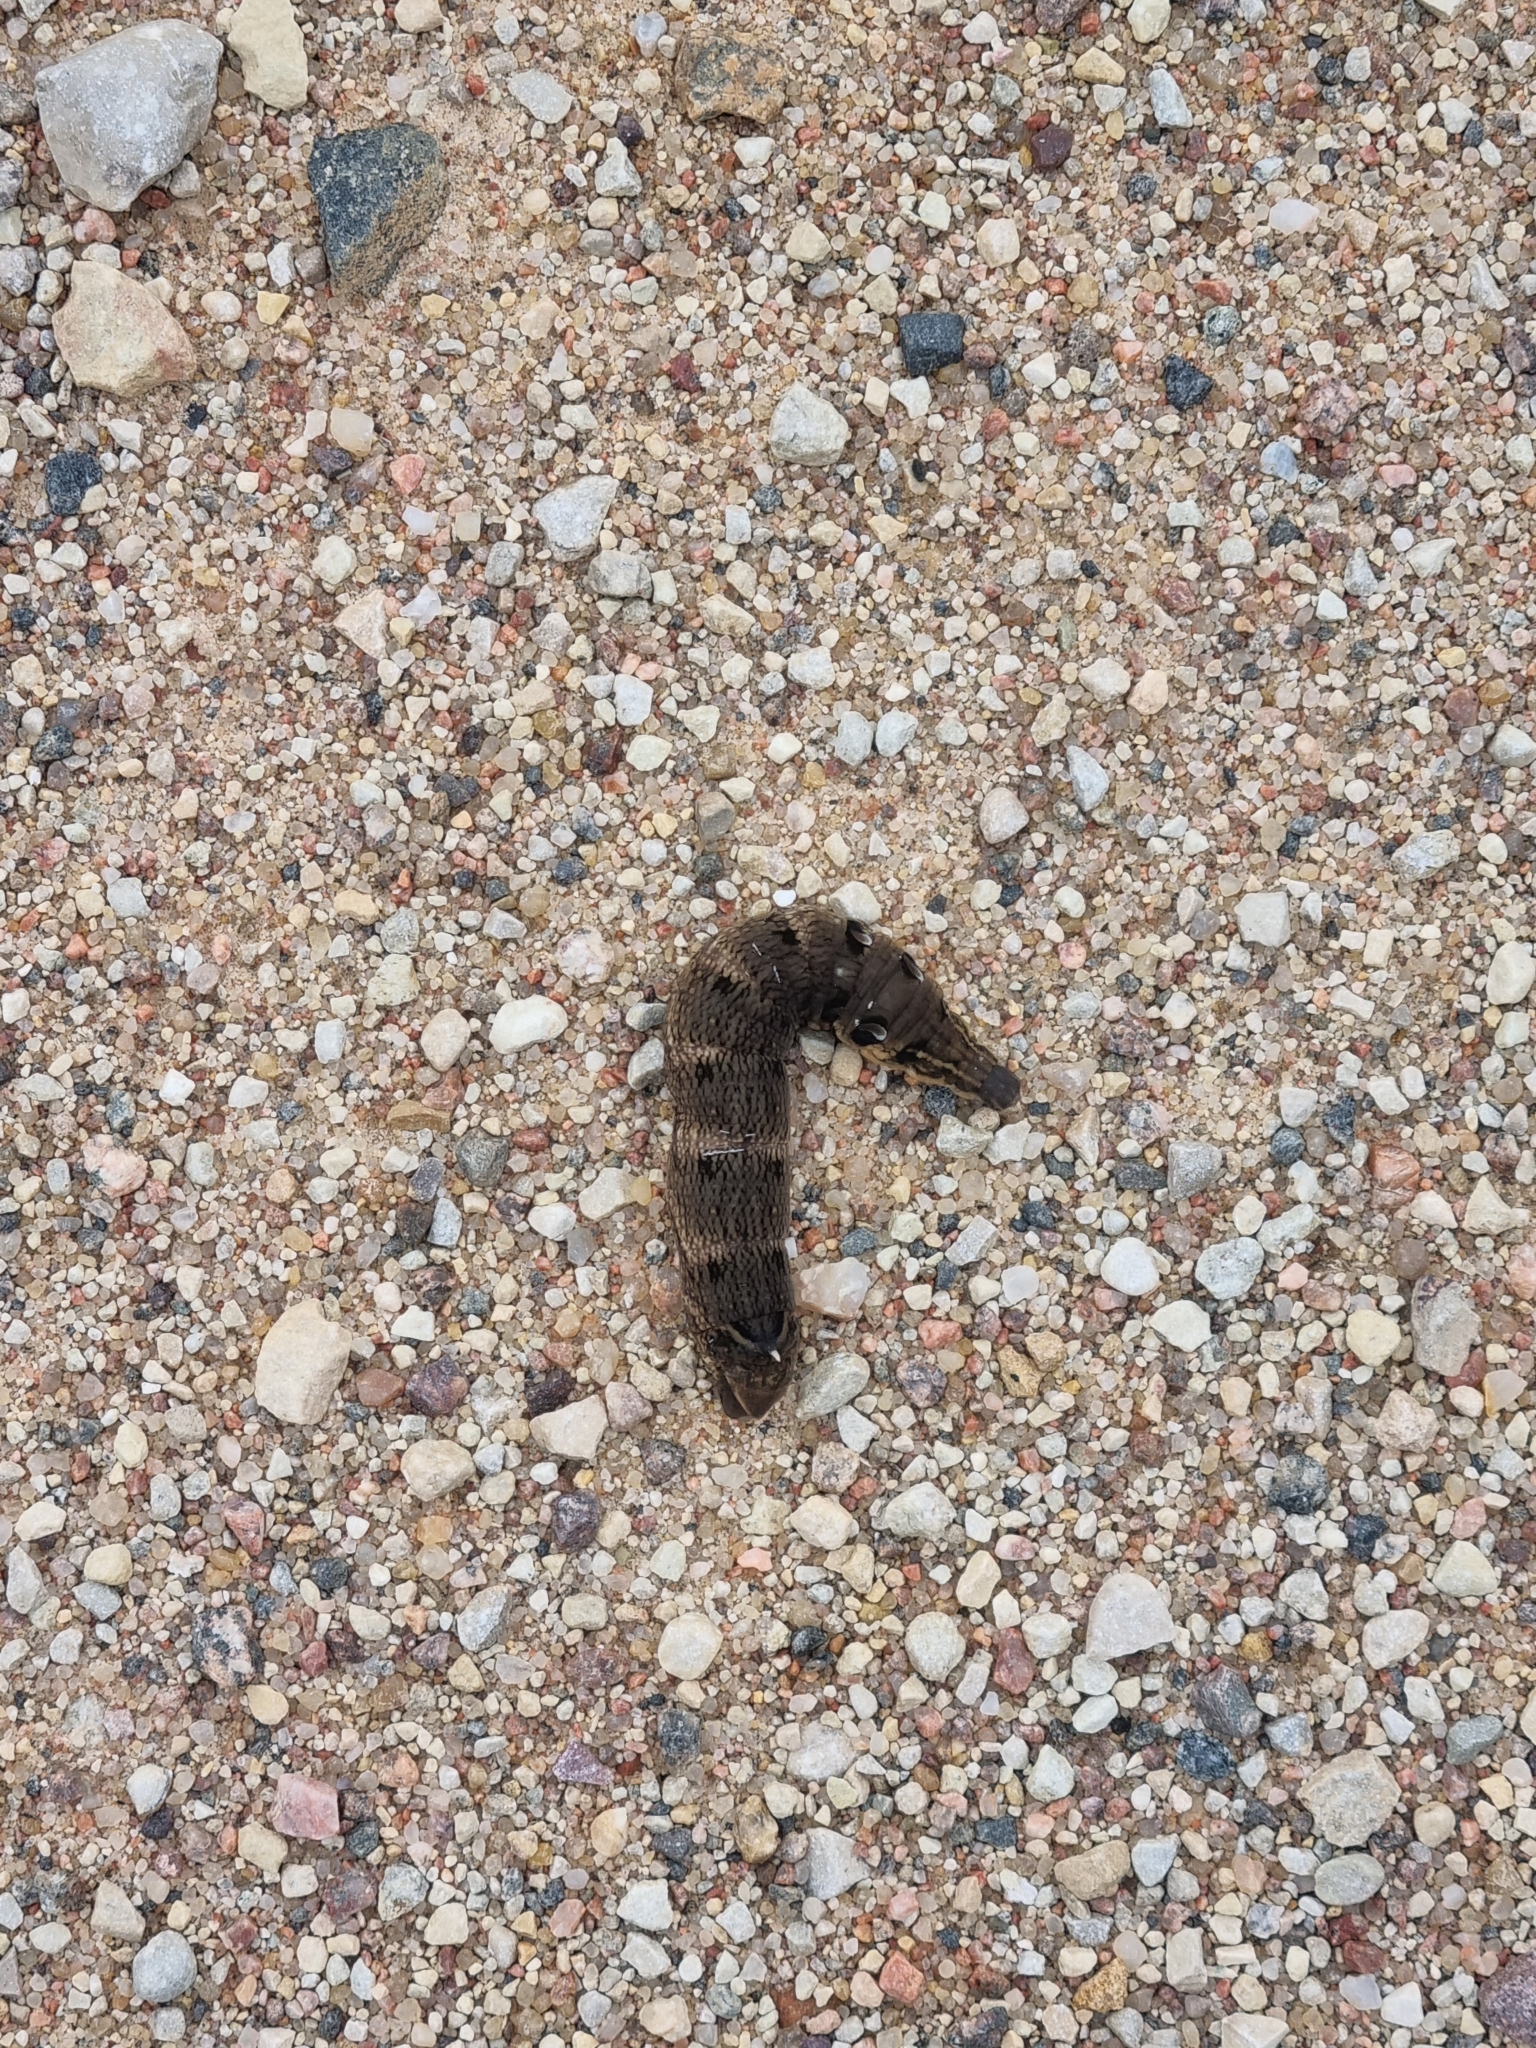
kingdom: Animalia
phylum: Arthropoda
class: Insecta
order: Lepidoptera
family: Sphingidae
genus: Deilephila
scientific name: Deilephila elpenor
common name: Elephant hawk-moth
